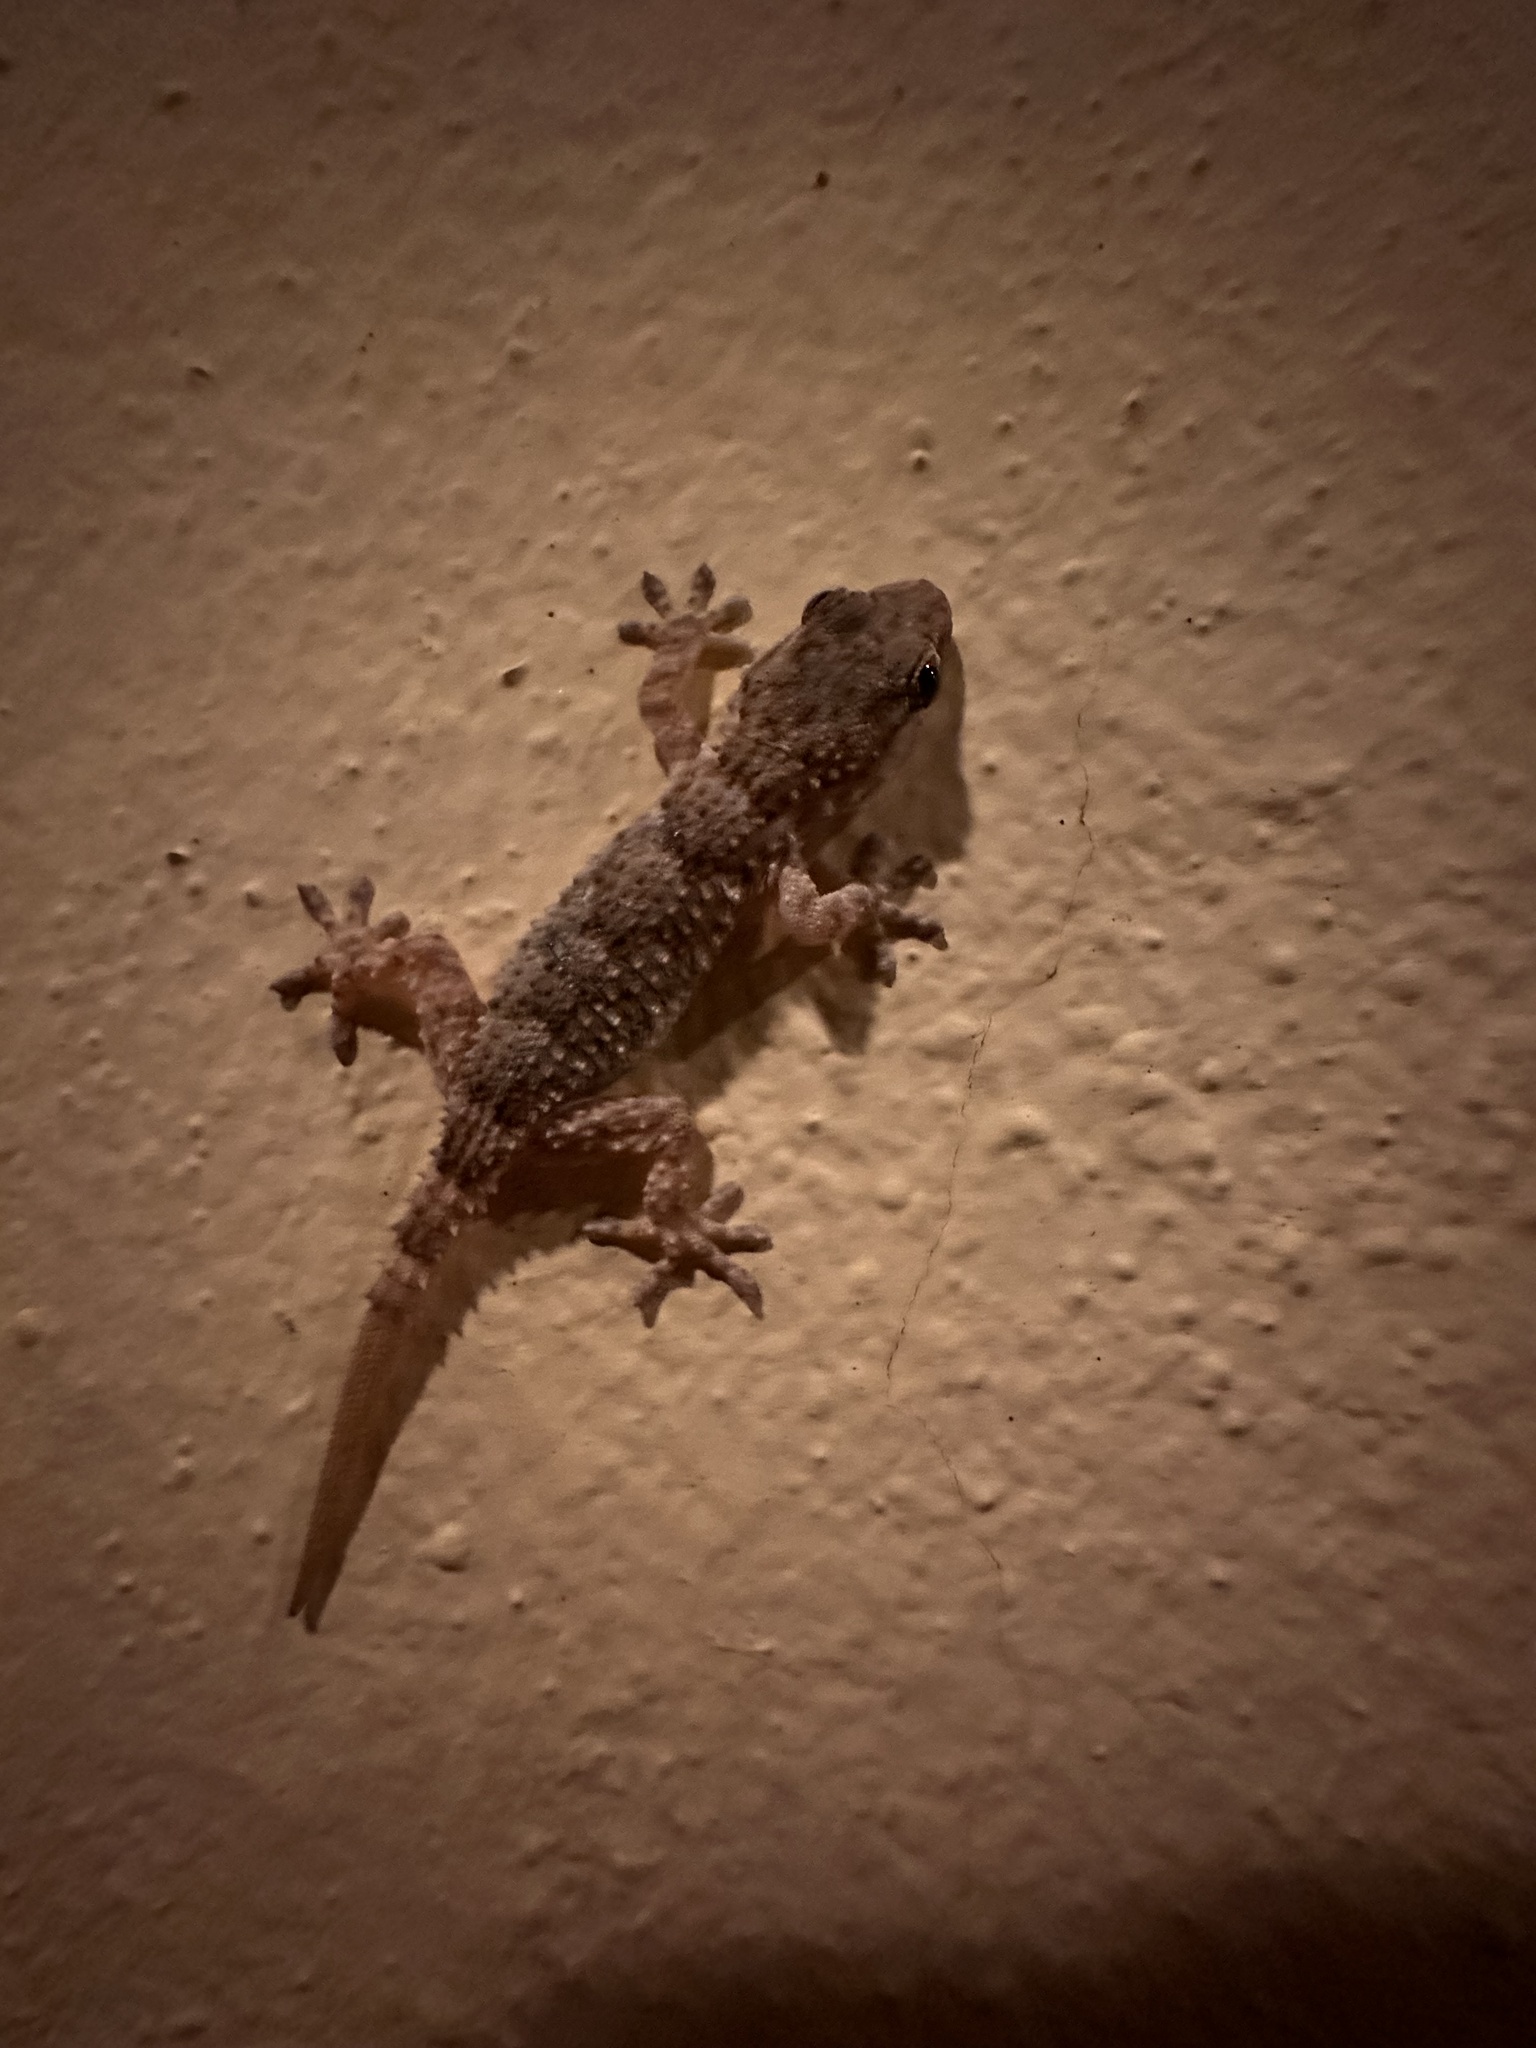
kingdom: Animalia
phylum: Chordata
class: Squamata
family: Phyllodactylidae
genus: Tarentola
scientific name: Tarentola mauritanica
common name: Moorish gecko
